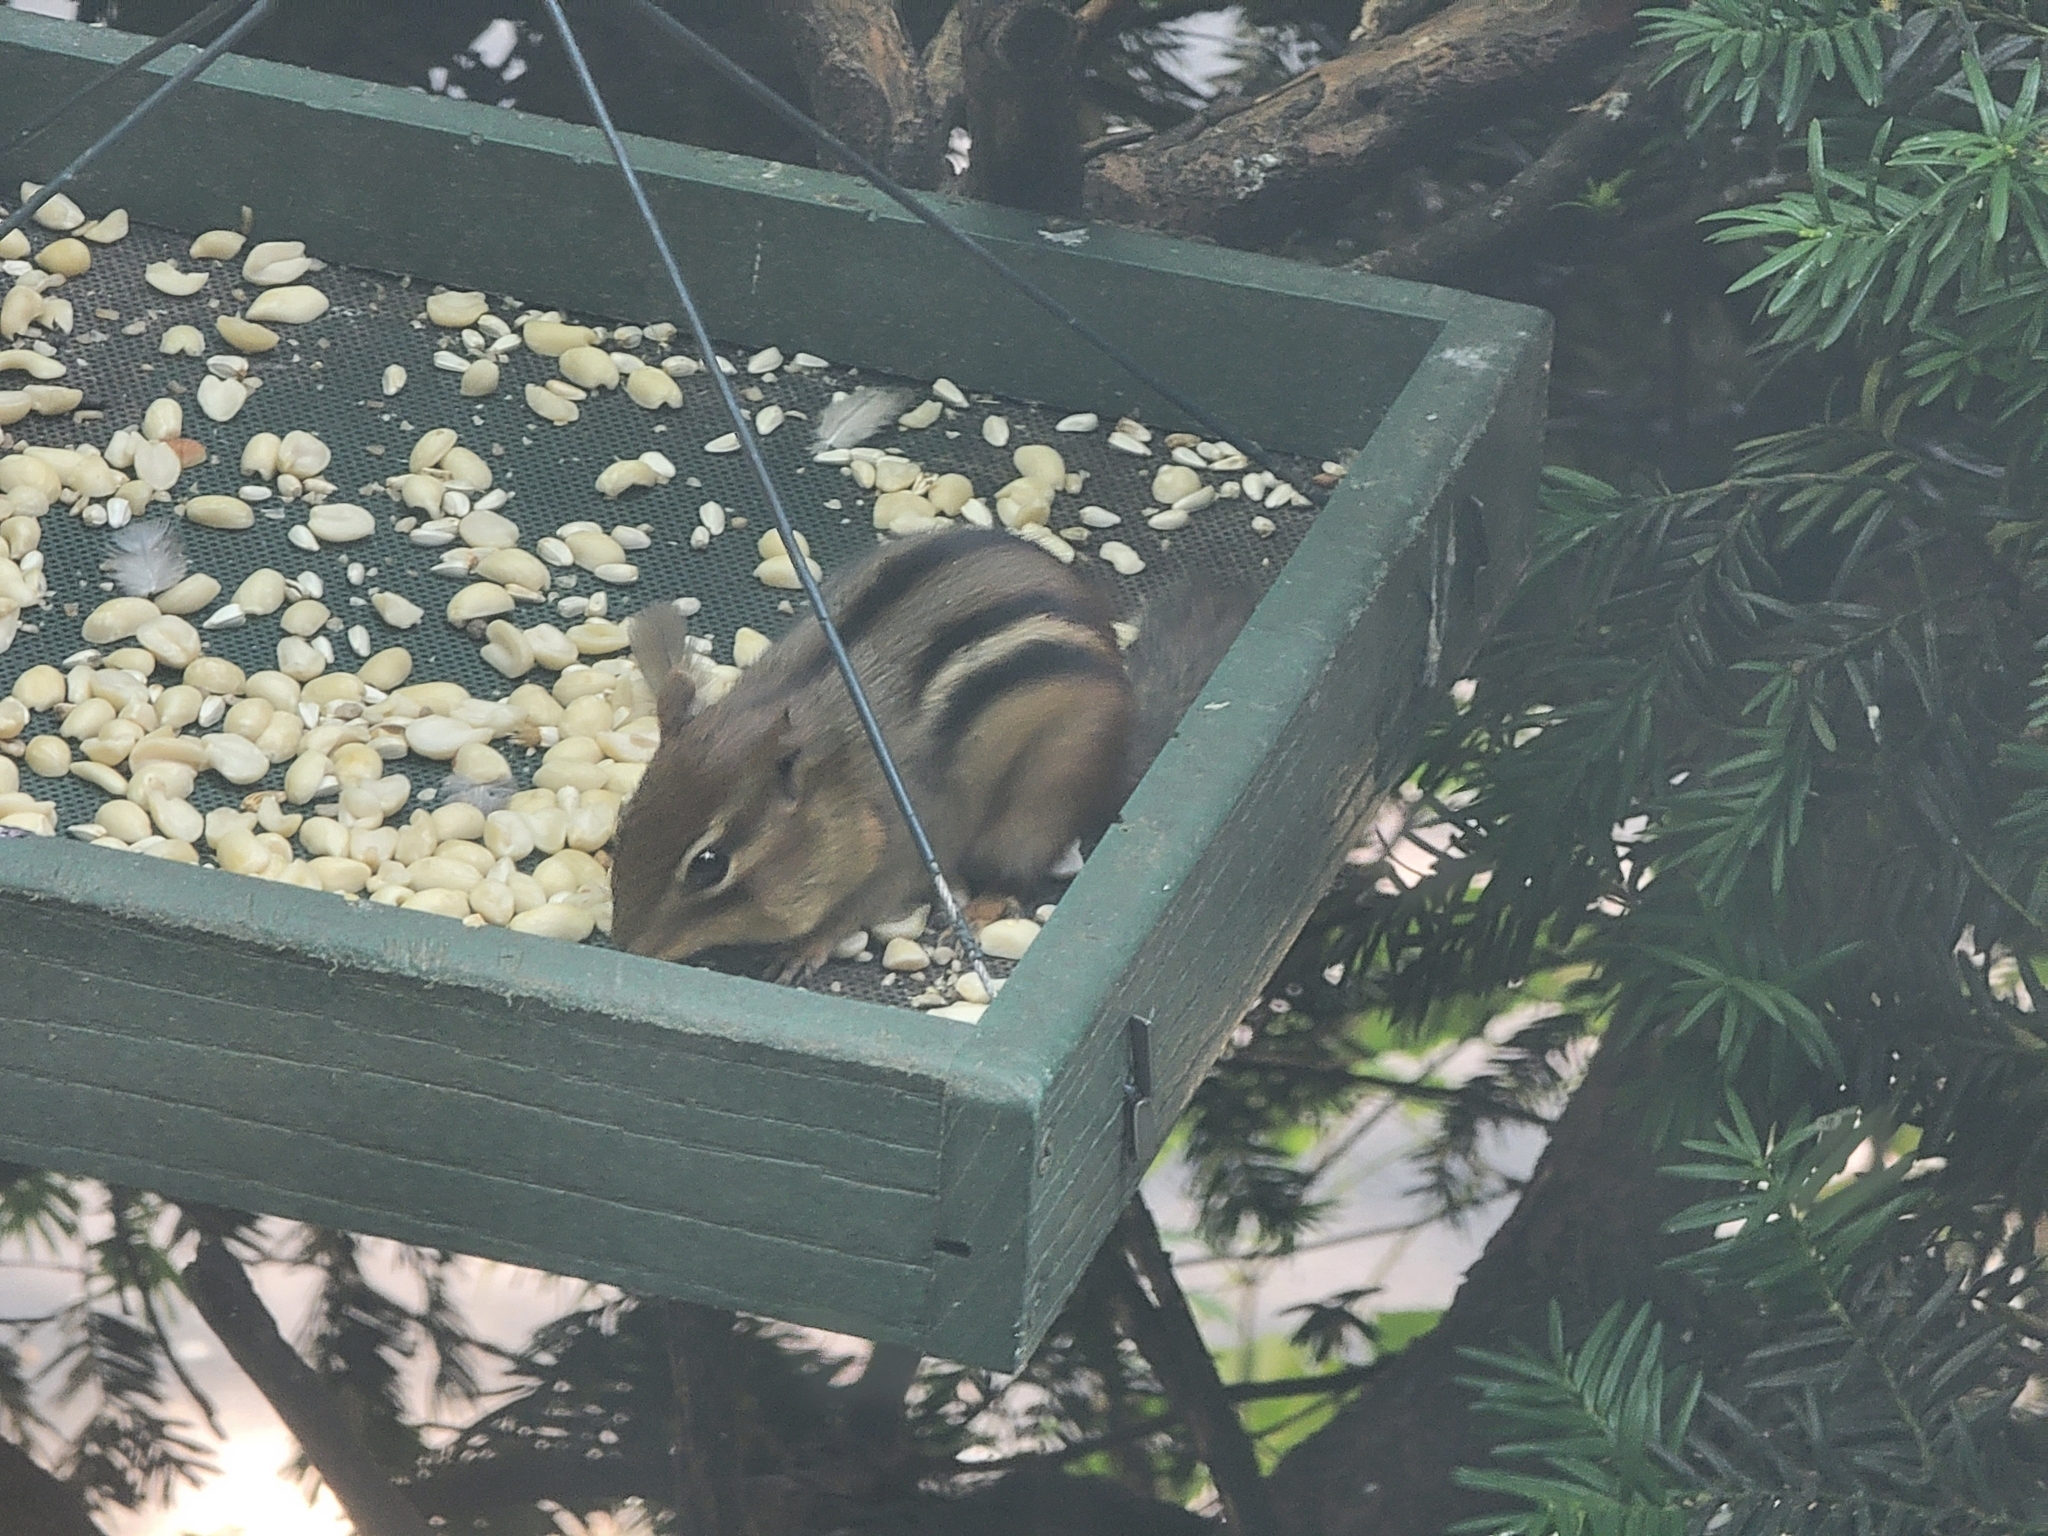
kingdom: Animalia
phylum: Chordata
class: Mammalia
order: Rodentia
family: Sciuridae
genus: Tamias
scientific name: Tamias striatus
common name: Eastern chipmunk
